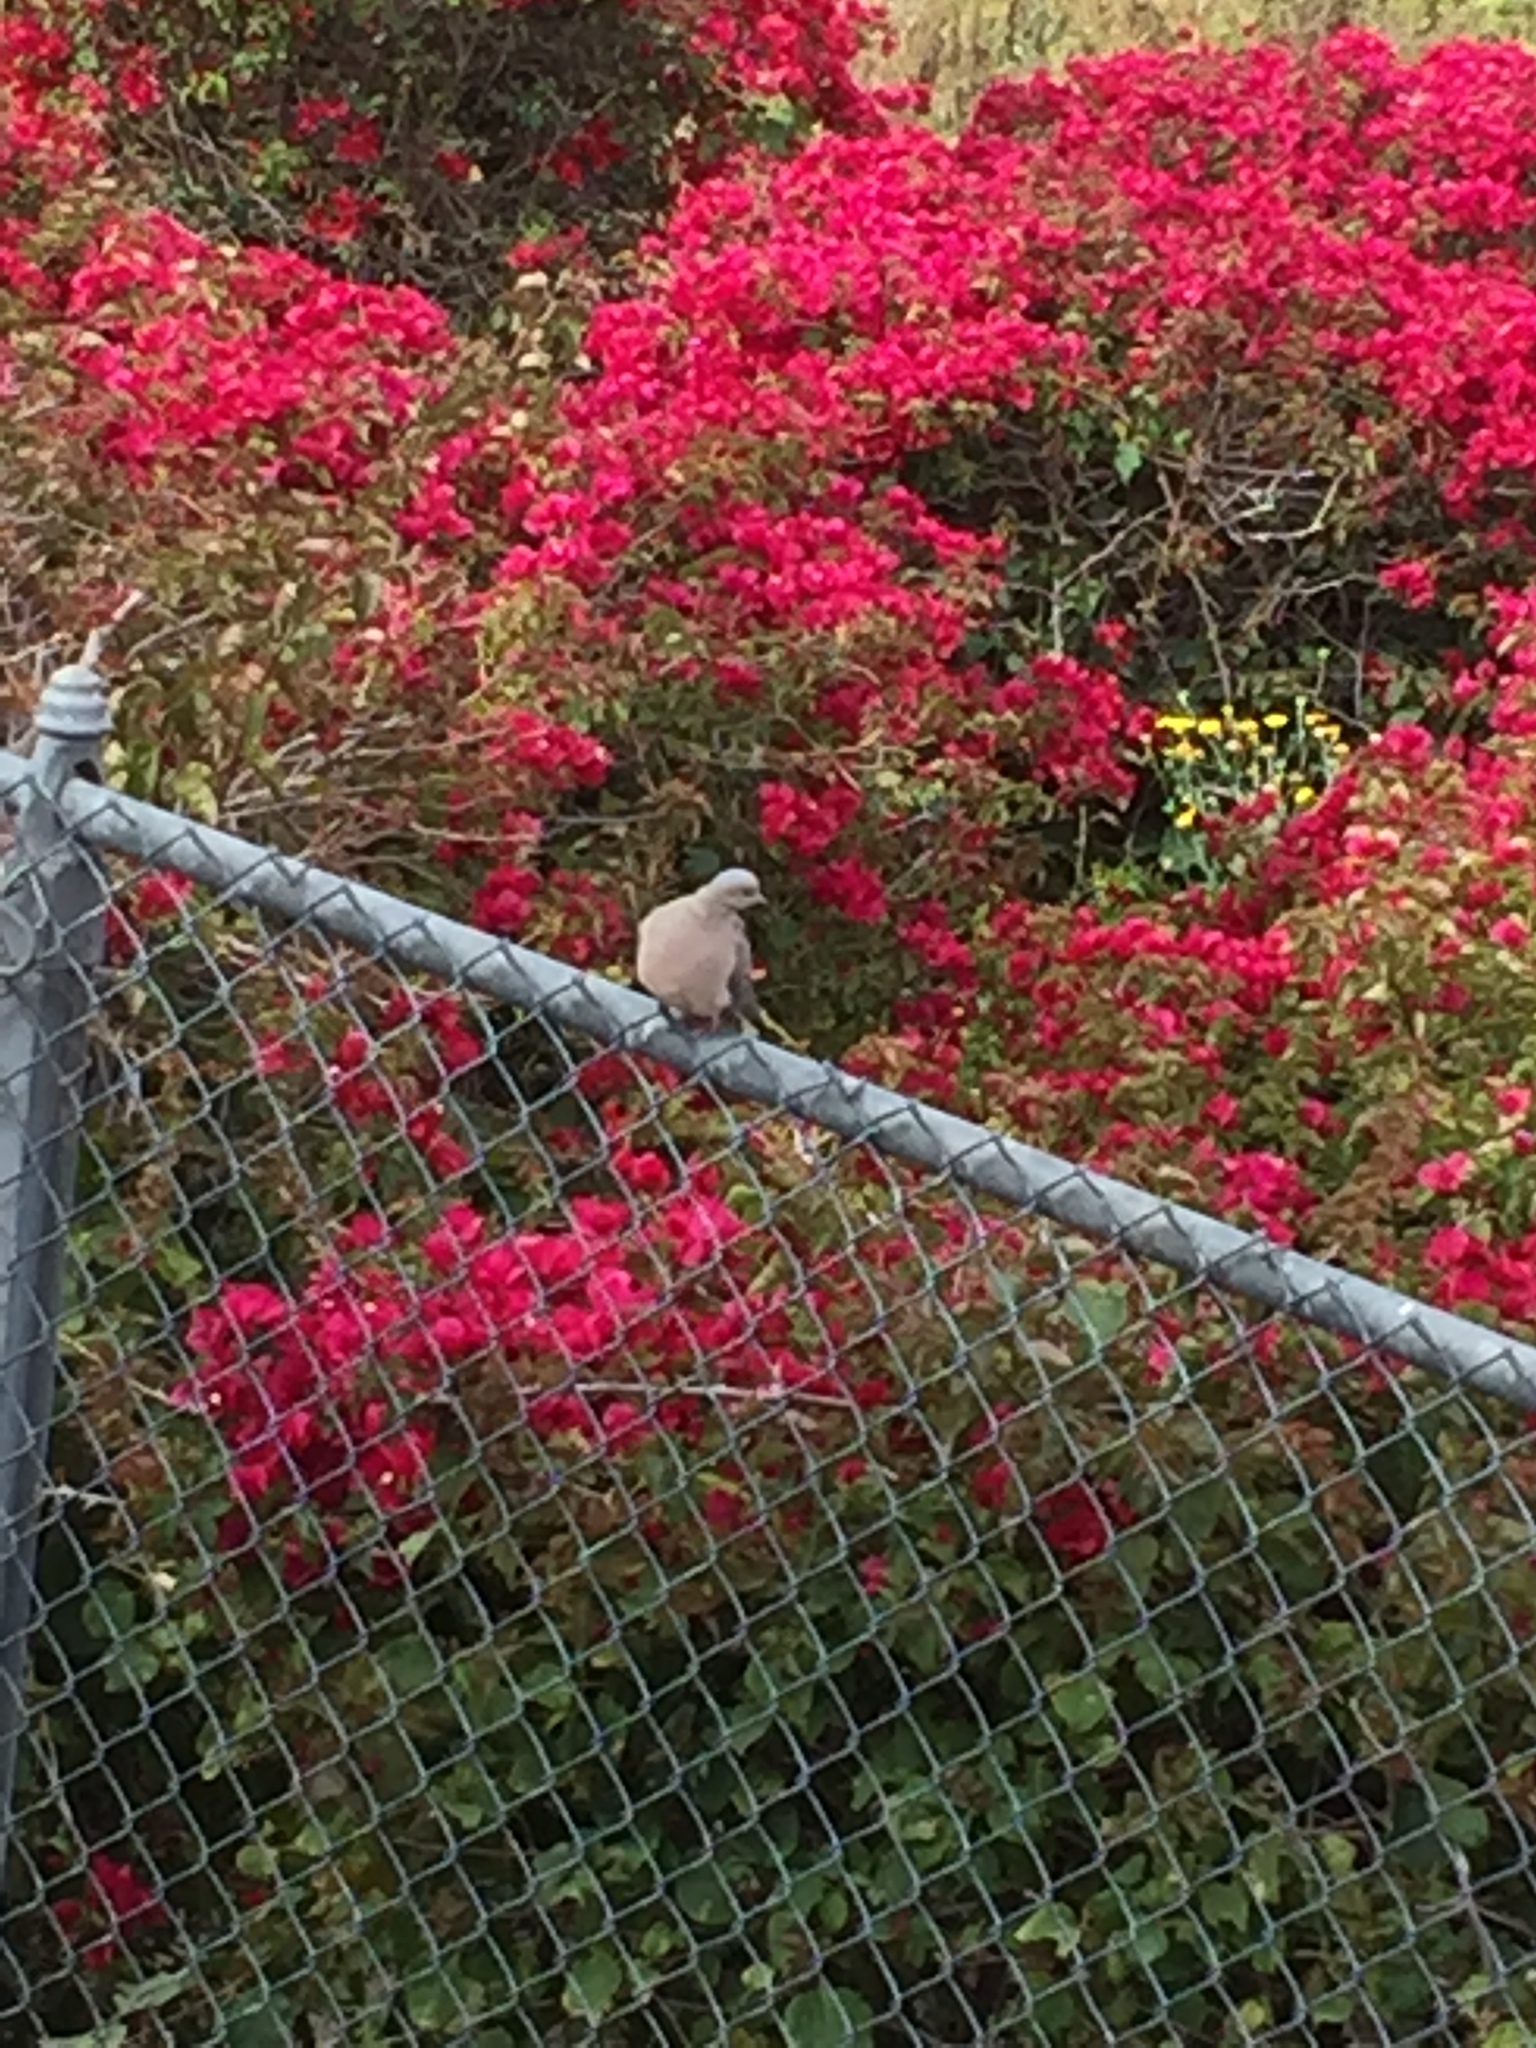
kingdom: Animalia
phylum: Chordata
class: Aves
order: Columbiformes
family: Columbidae
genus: Zenaida
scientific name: Zenaida macroura
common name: Mourning dove
